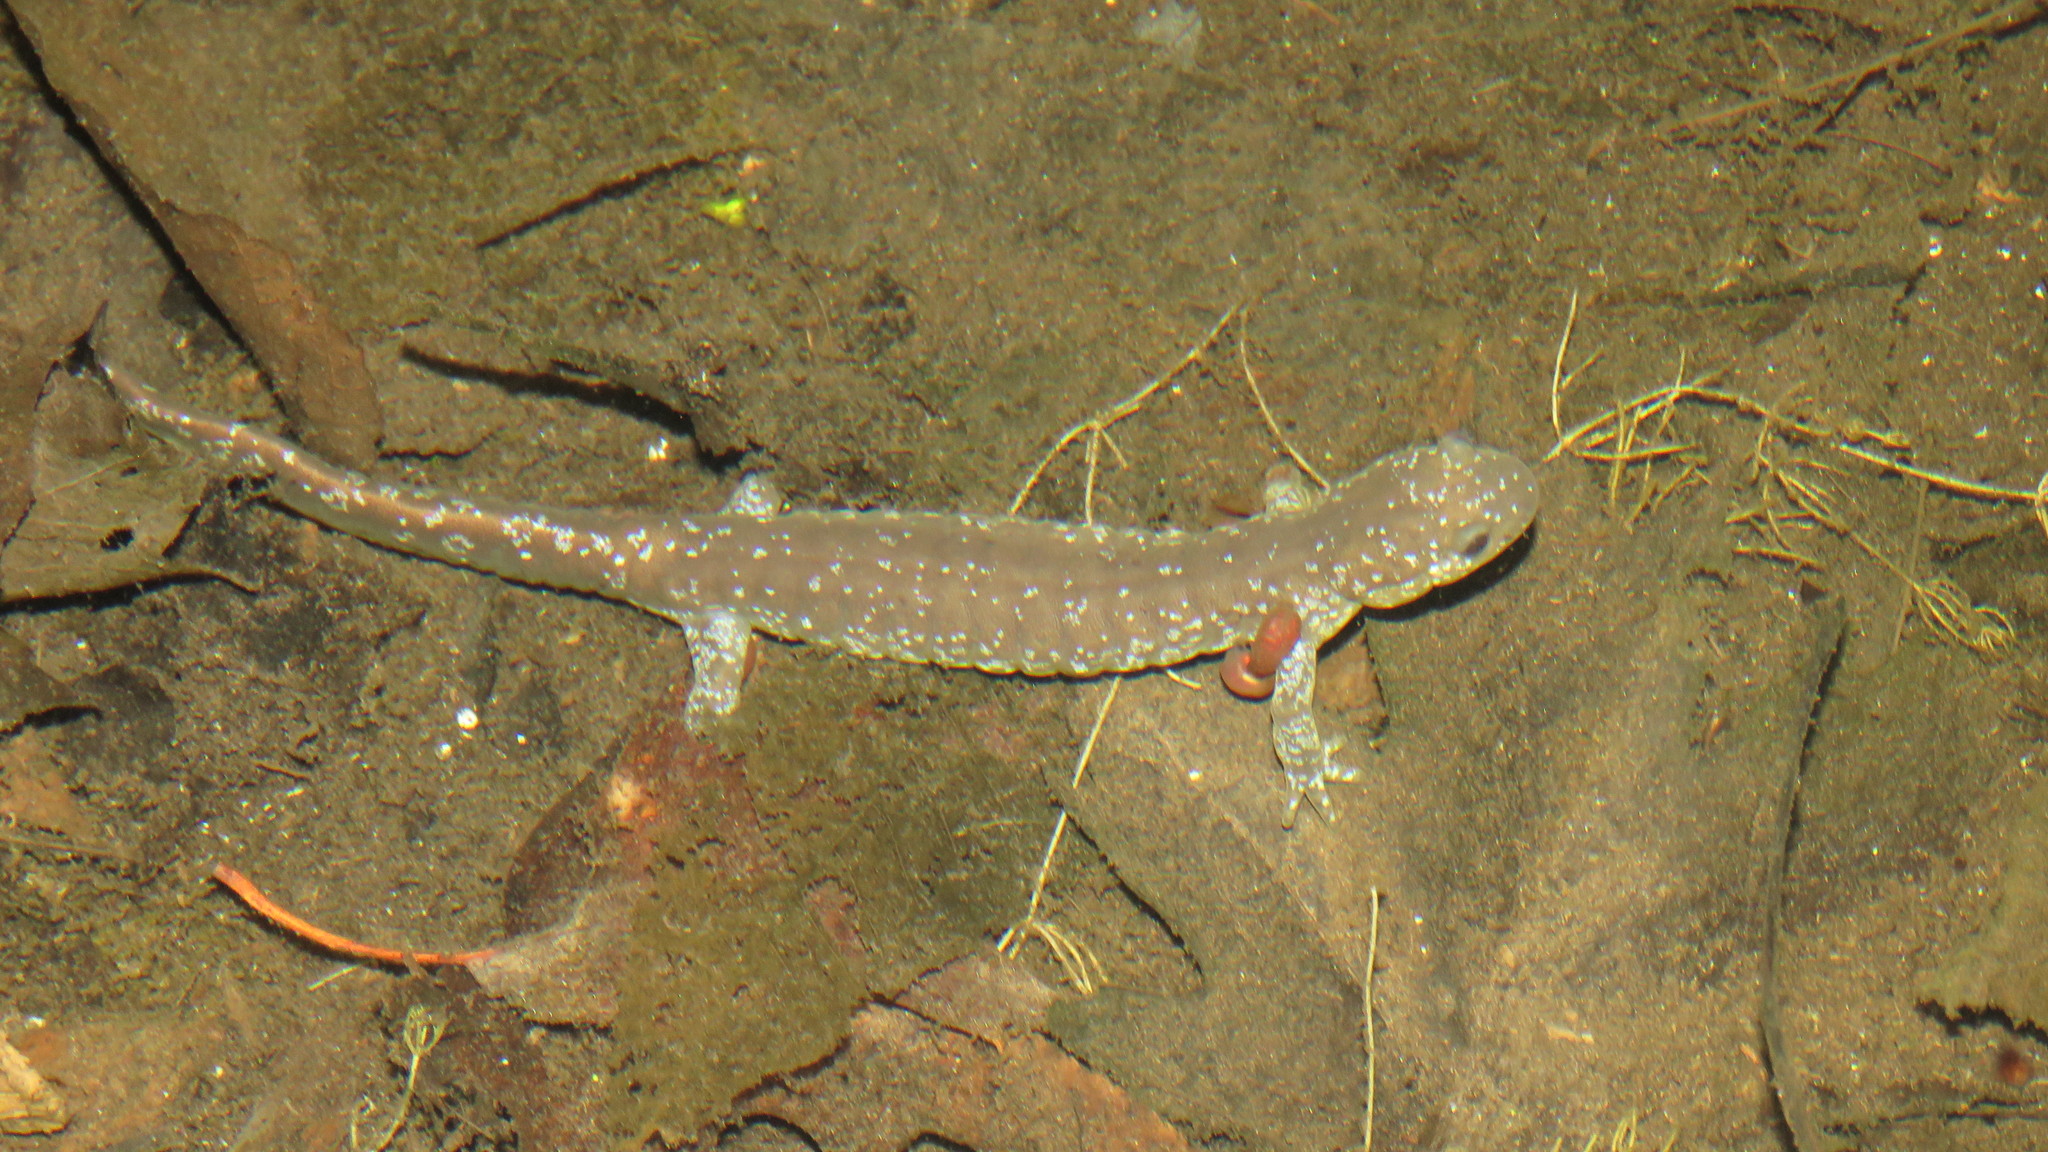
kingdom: Animalia
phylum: Chordata
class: Amphibia
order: Caudata
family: Ambystomatidae
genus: Ambystoma
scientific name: Ambystoma unisexual
